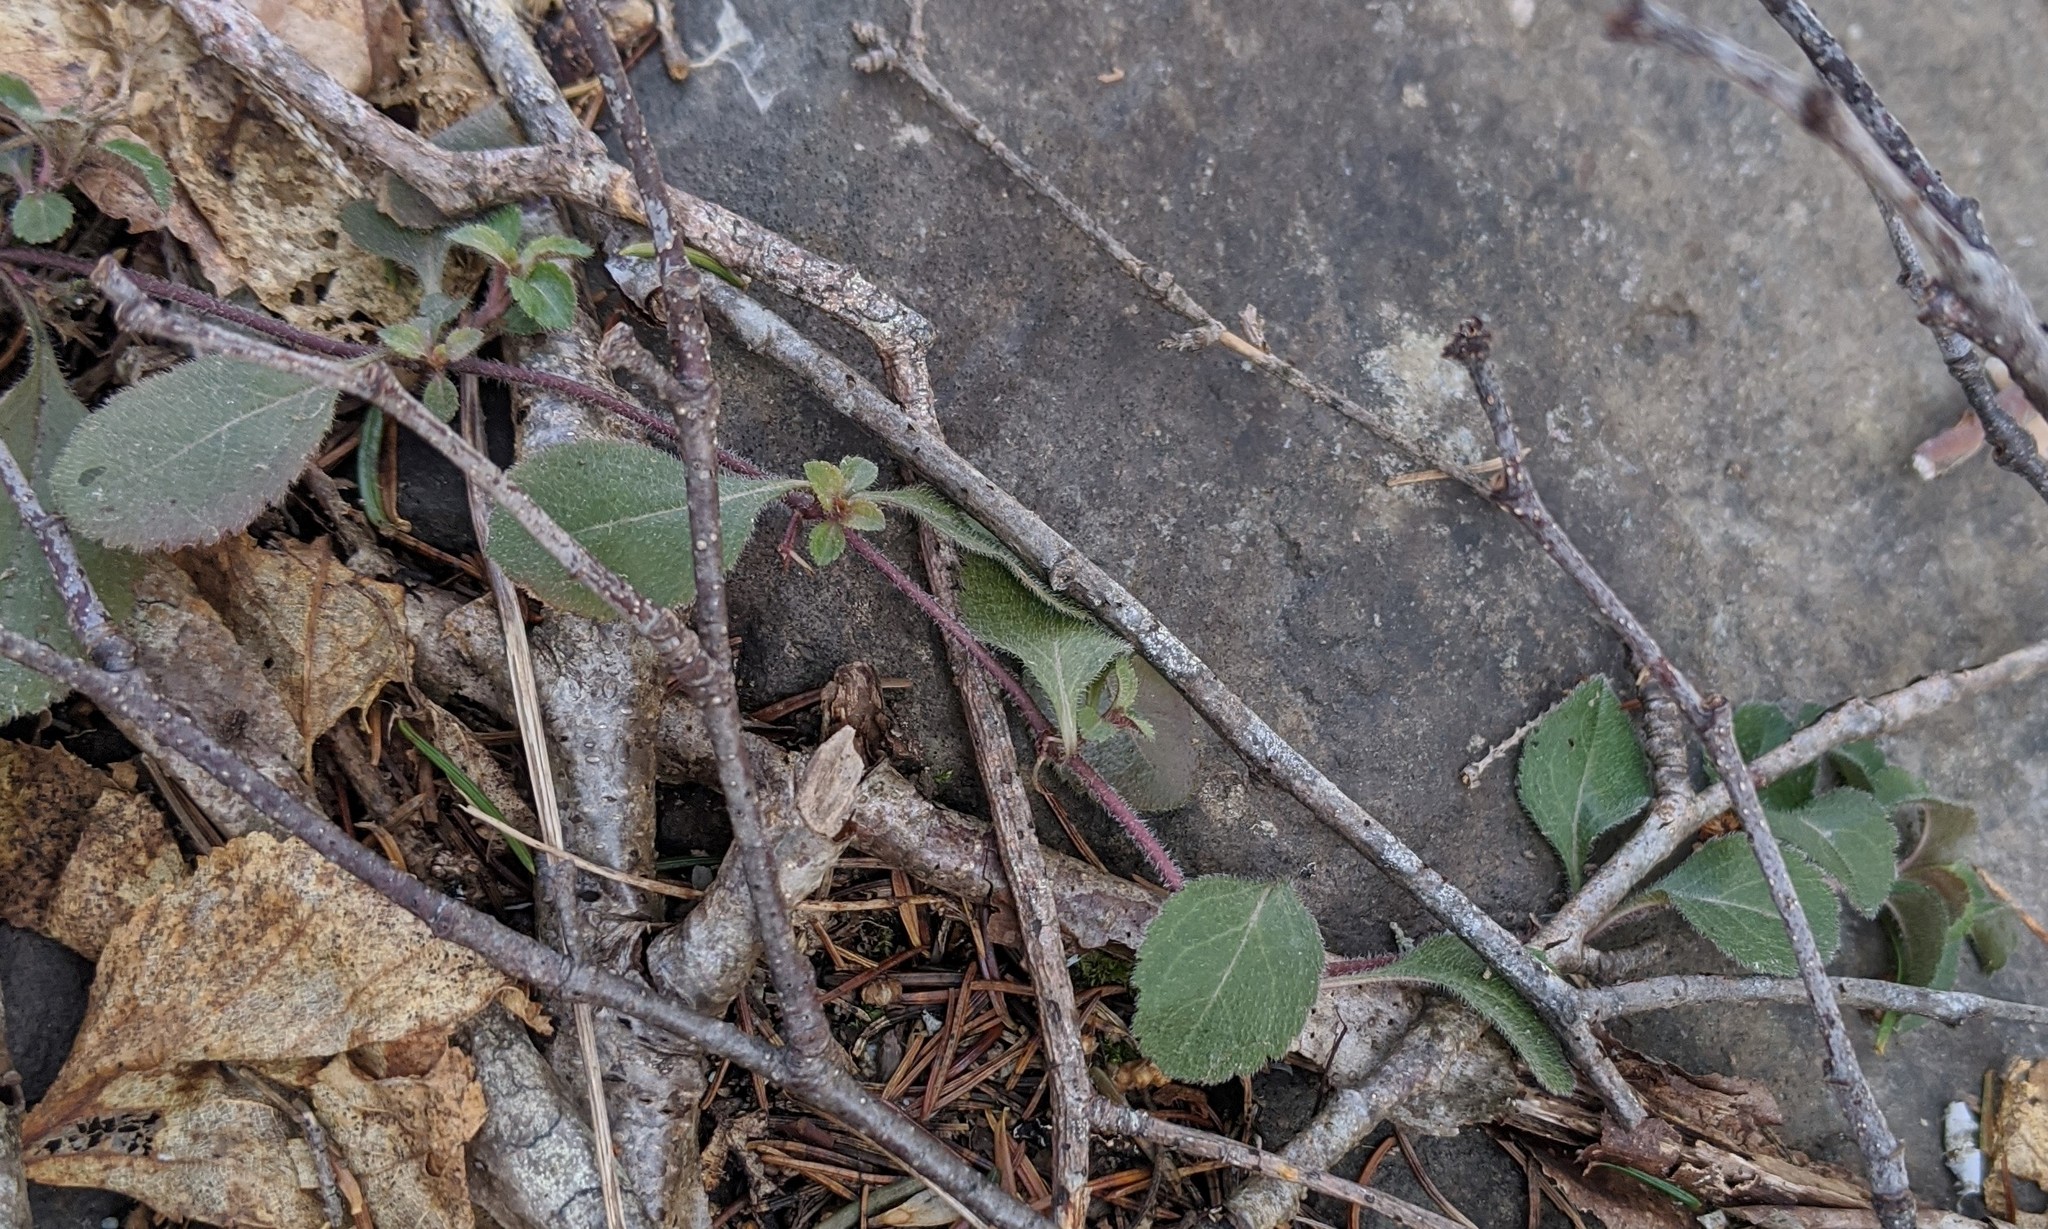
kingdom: Plantae
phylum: Tracheophyta
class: Magnoliopsida
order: Lamiales
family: Plantaginaceae
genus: Veronica
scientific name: Veronica officinalis
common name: Common speedwell
